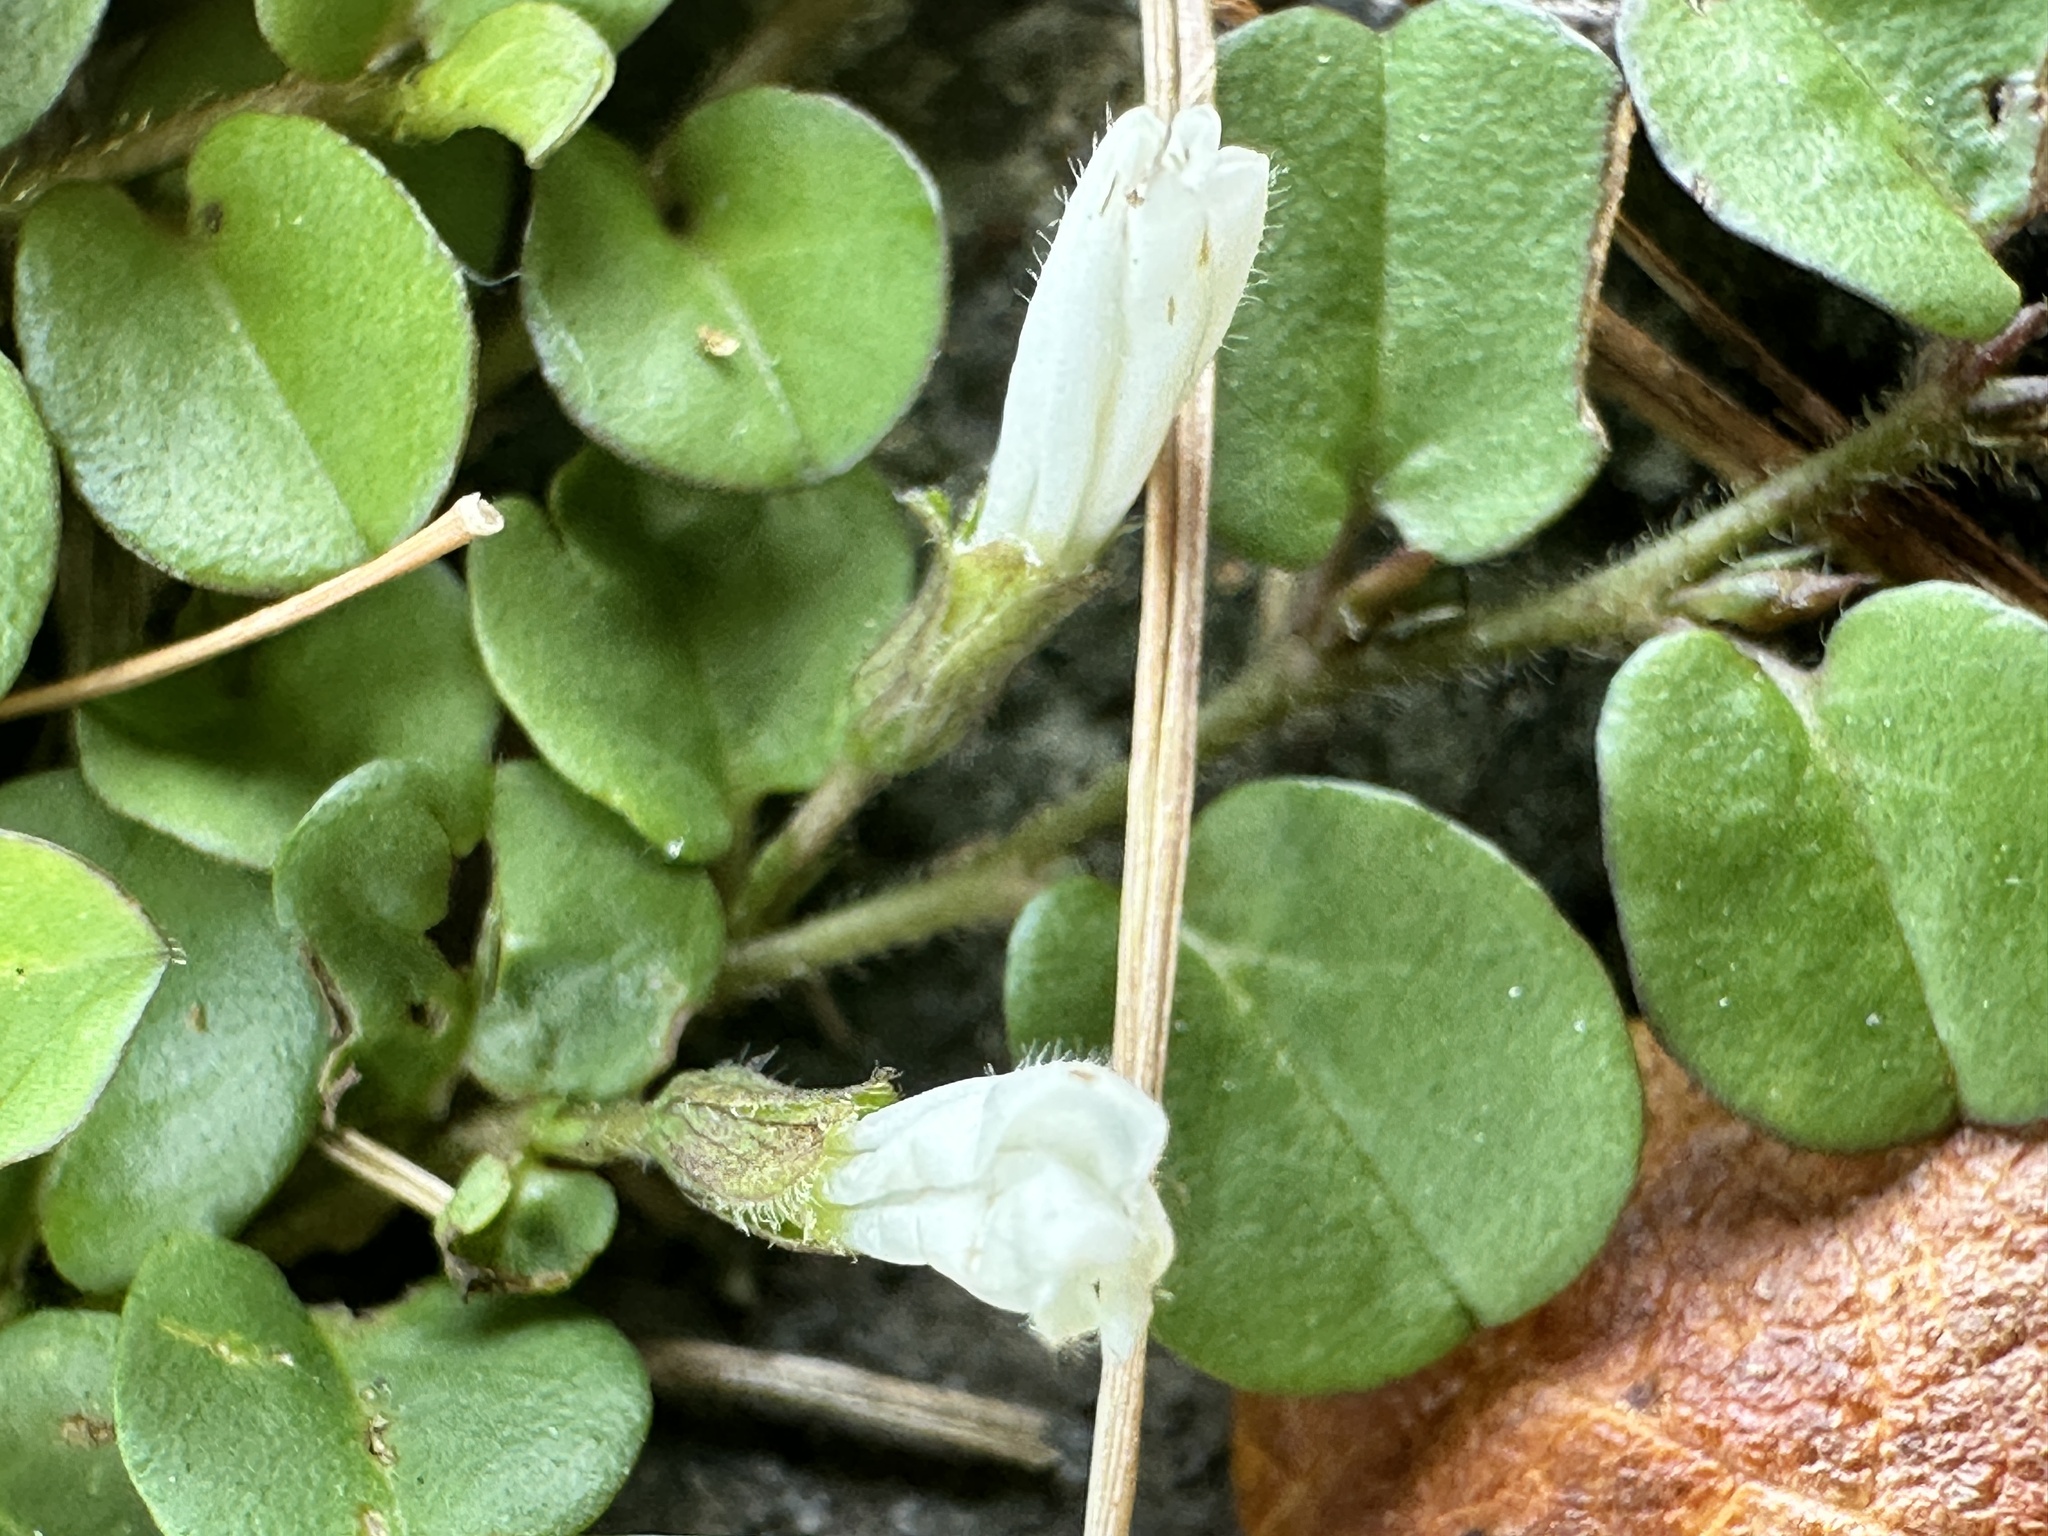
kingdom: Plantae
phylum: Tracheophyta
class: Magnoliopsida
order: Solanales
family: Convolvulaceae
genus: Evolvulus
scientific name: Evolvulus nummularius
